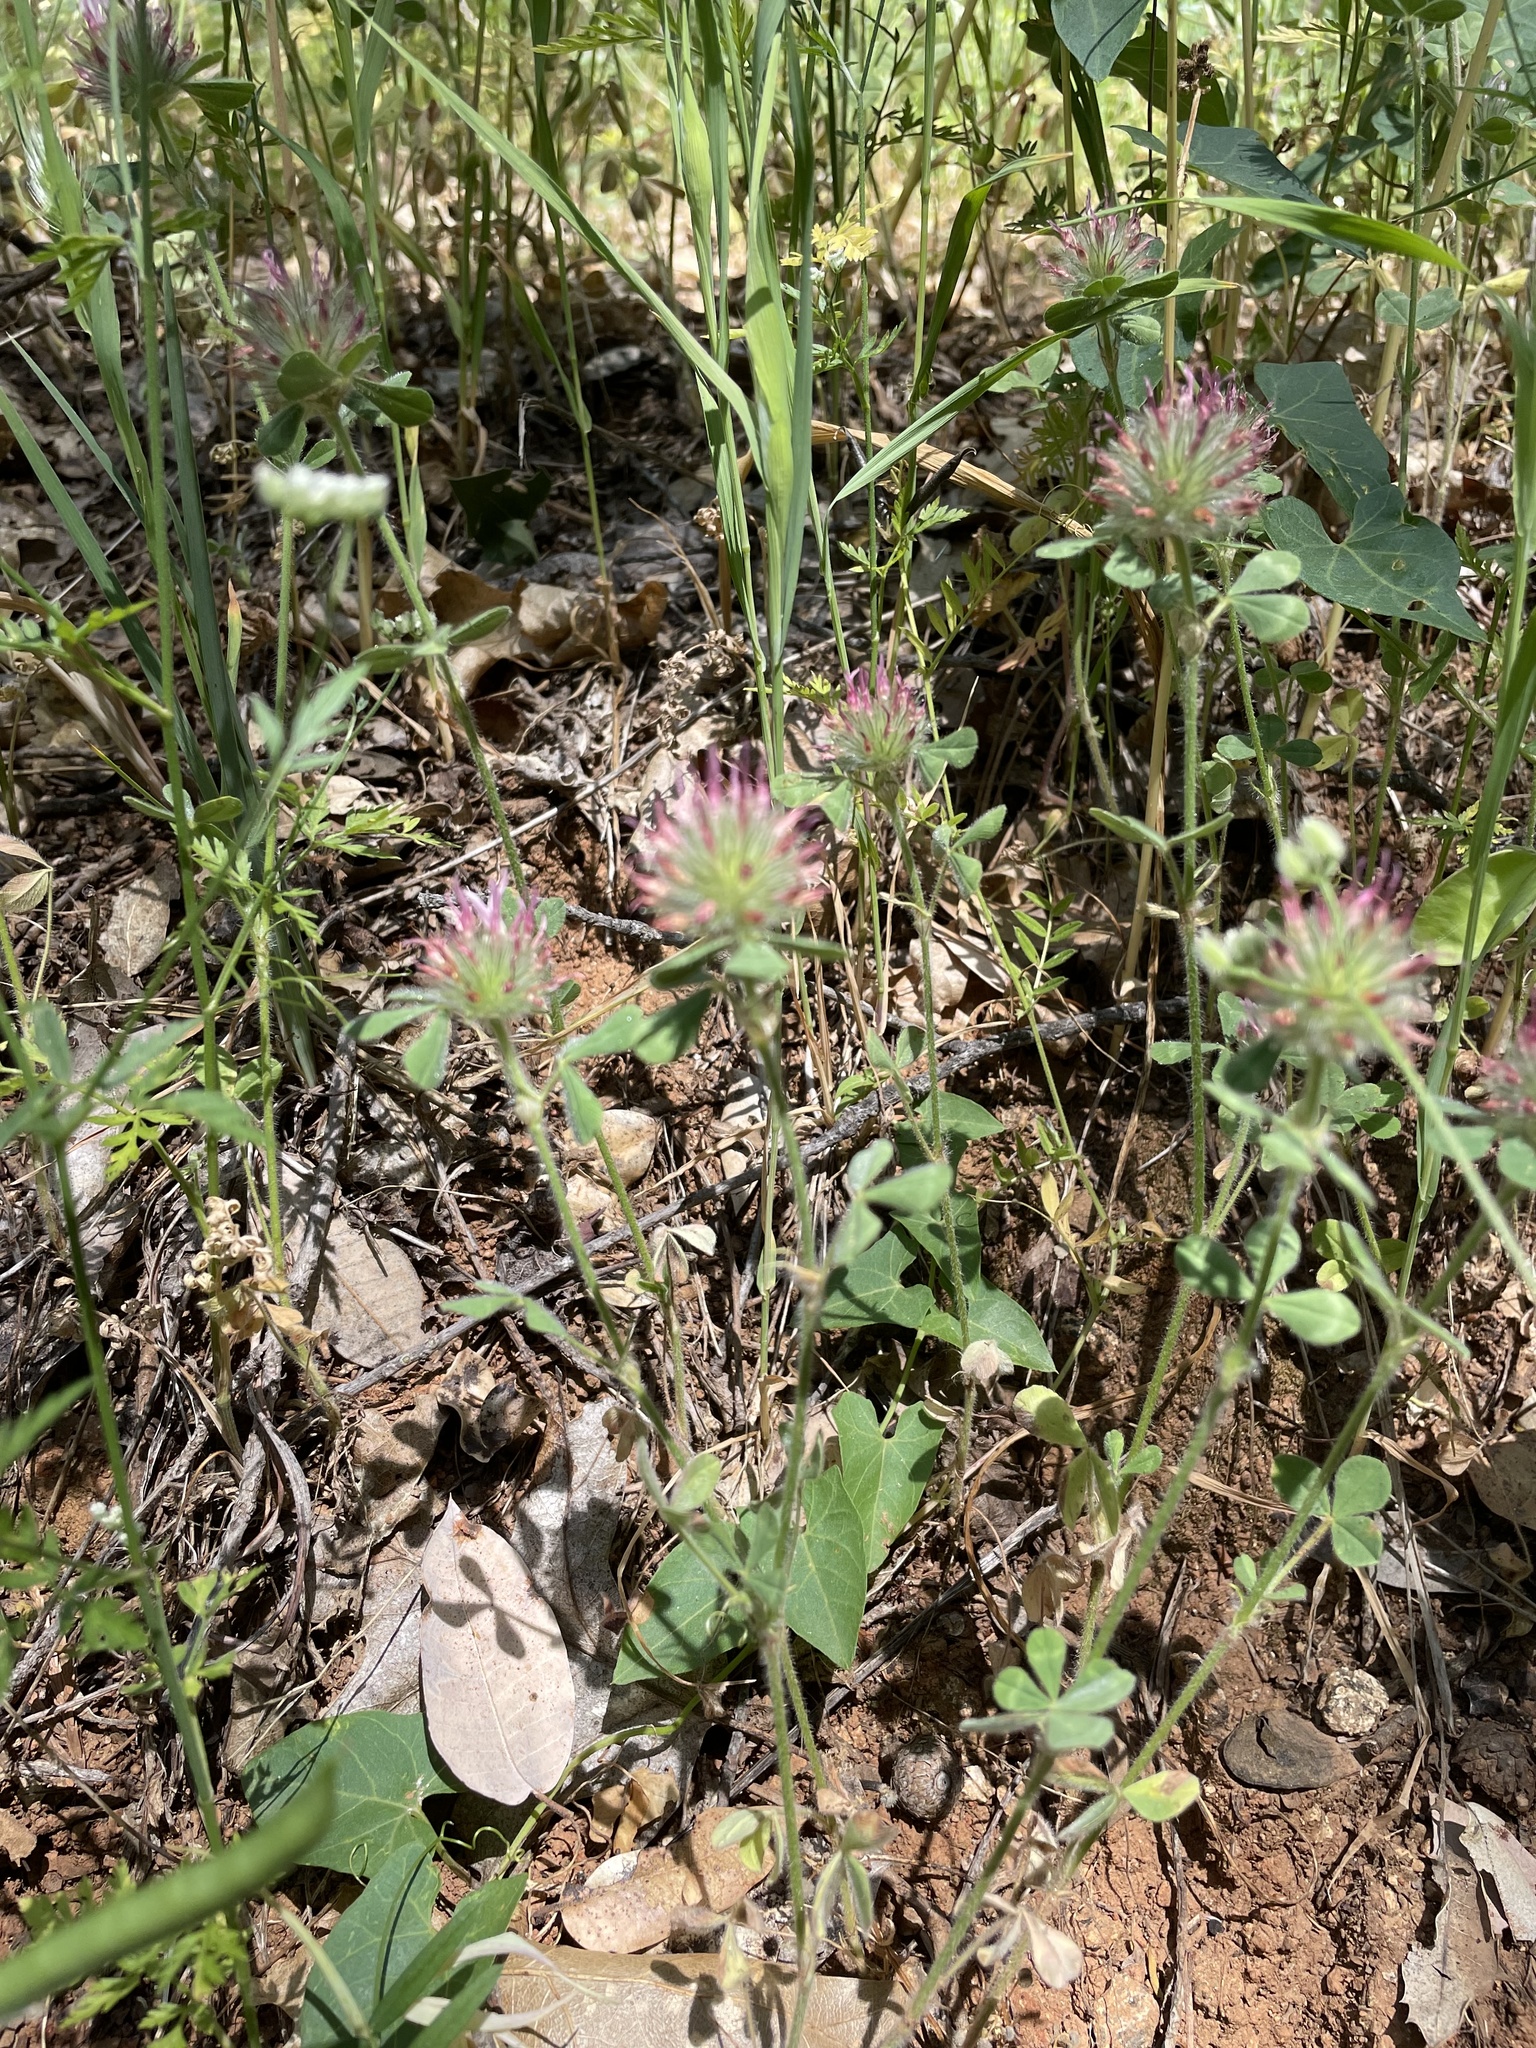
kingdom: Plantae
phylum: Tracheophyta
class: Magnoliopsida
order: Fabales
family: Fabaceae
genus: Trifolium
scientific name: Trifolium hirtum
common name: Rose clover
